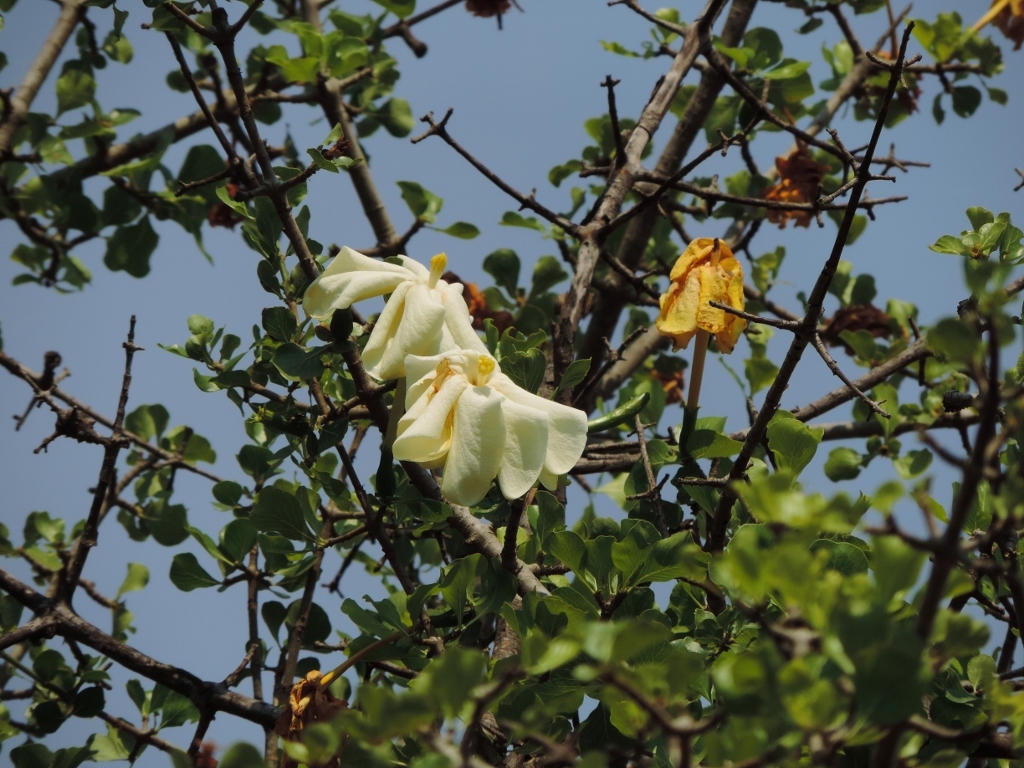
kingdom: Plantae
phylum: Tracheophyta
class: Magnoliopsida
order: Gentianales
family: Rubiaceae
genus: Gardenia
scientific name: Gardenia volkensii
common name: Common gardenia
